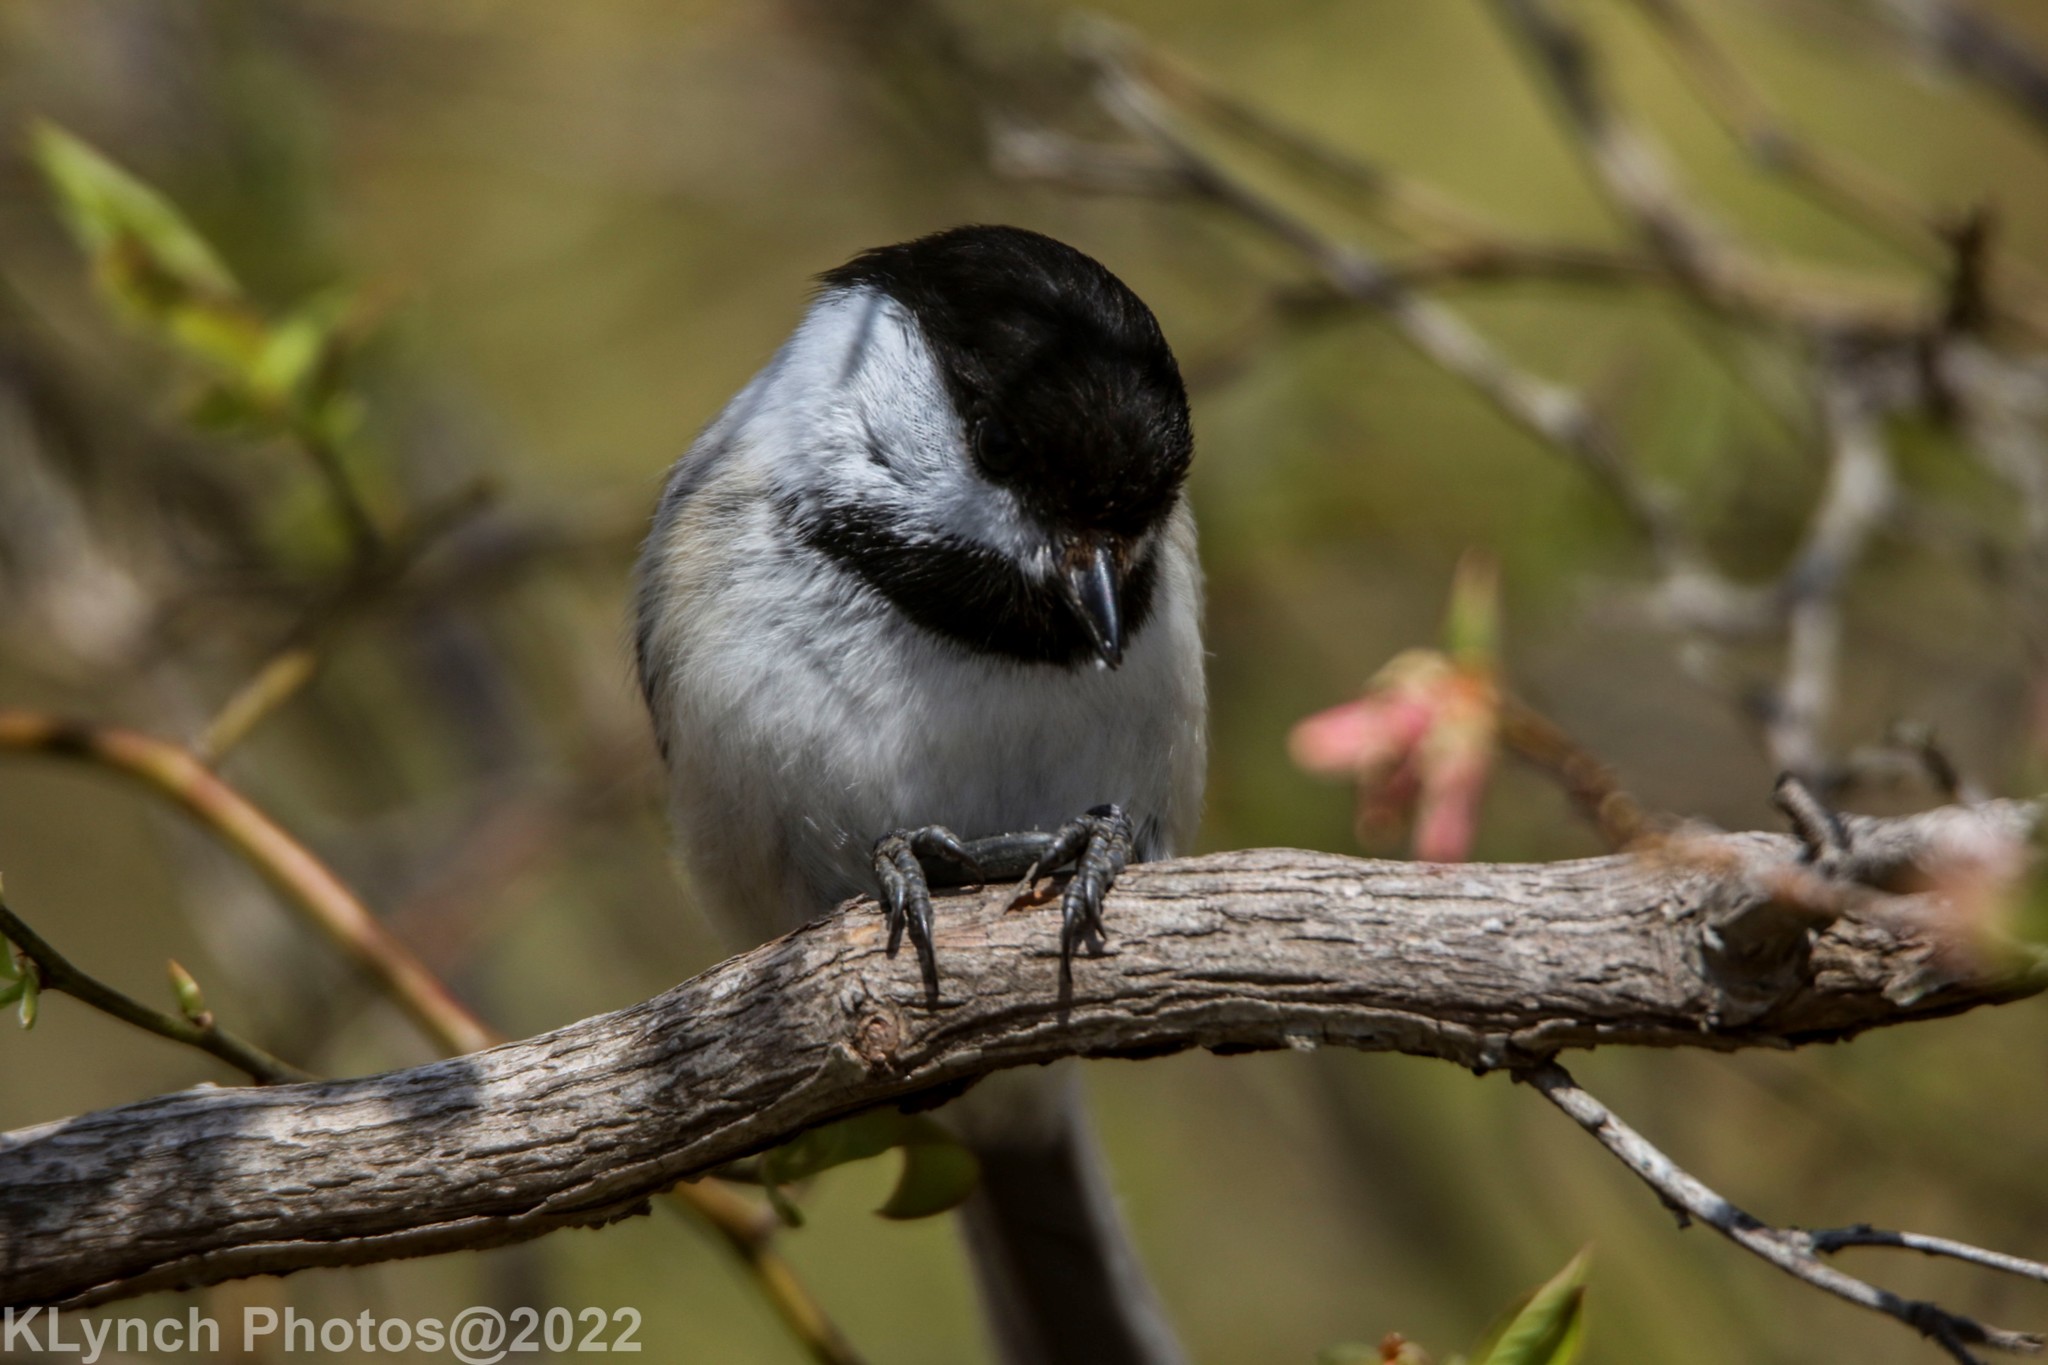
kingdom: Animalia
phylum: Chordata
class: Aves
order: Passeriformes
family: Paridae
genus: Poecile
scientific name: Poecile atricapillus
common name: Black-capped chickadee
